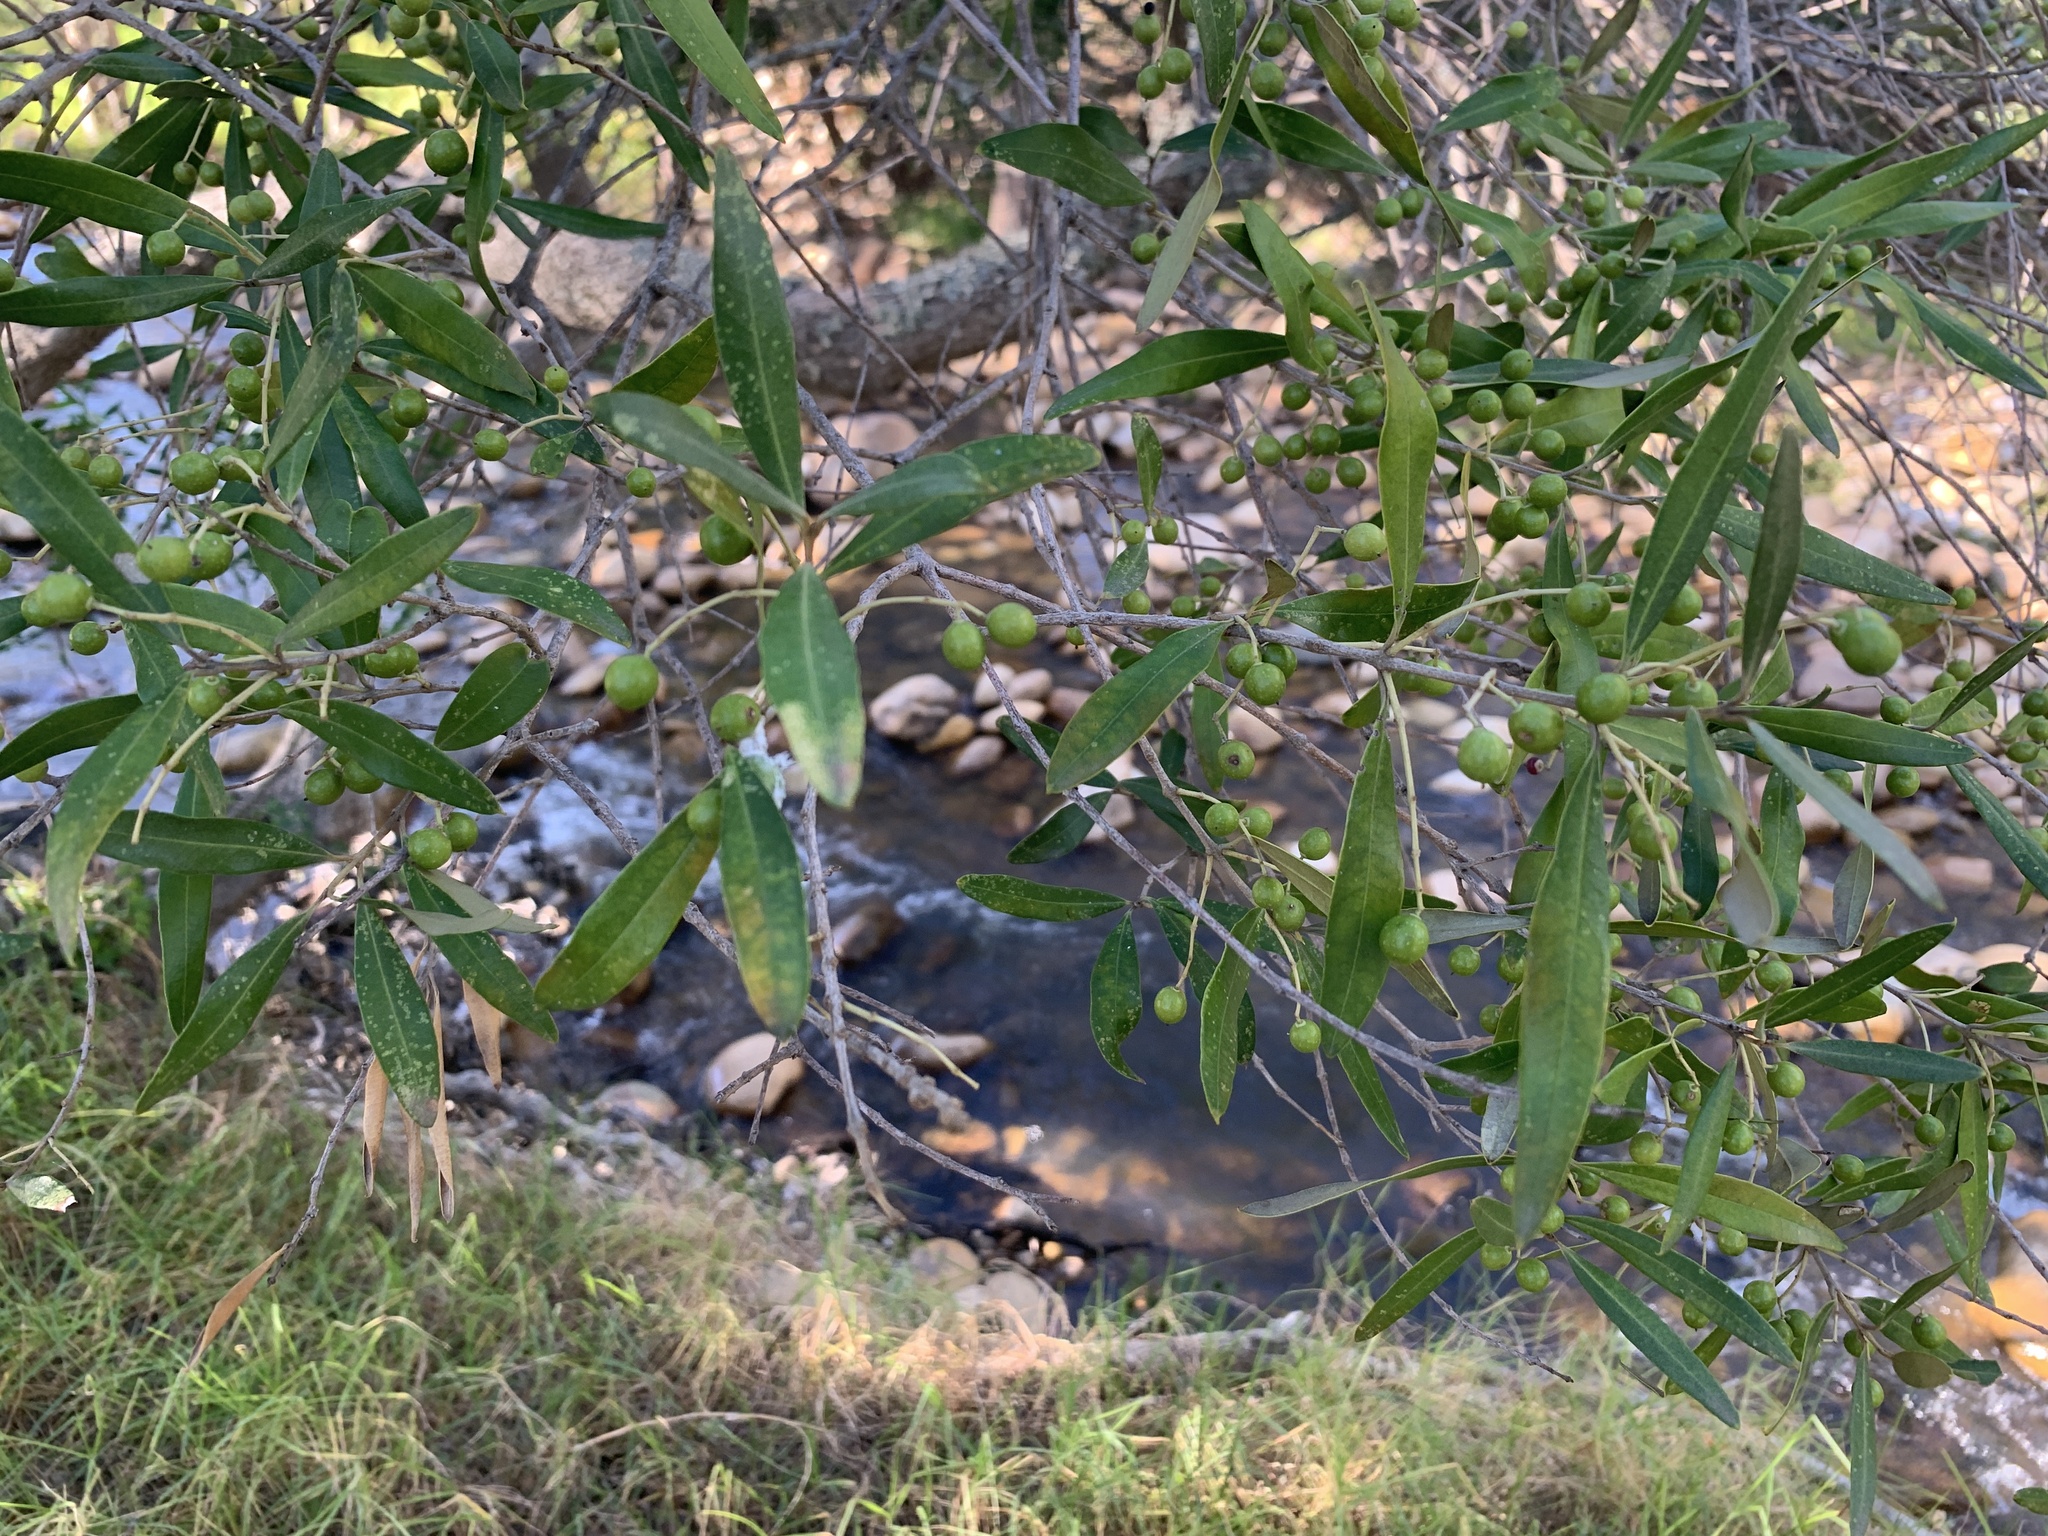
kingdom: Plantae
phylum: Tracheophyta
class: Magnoliopsida
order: Lamiales
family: Oleaceae
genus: Olea
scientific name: Olea europaea
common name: Olive
